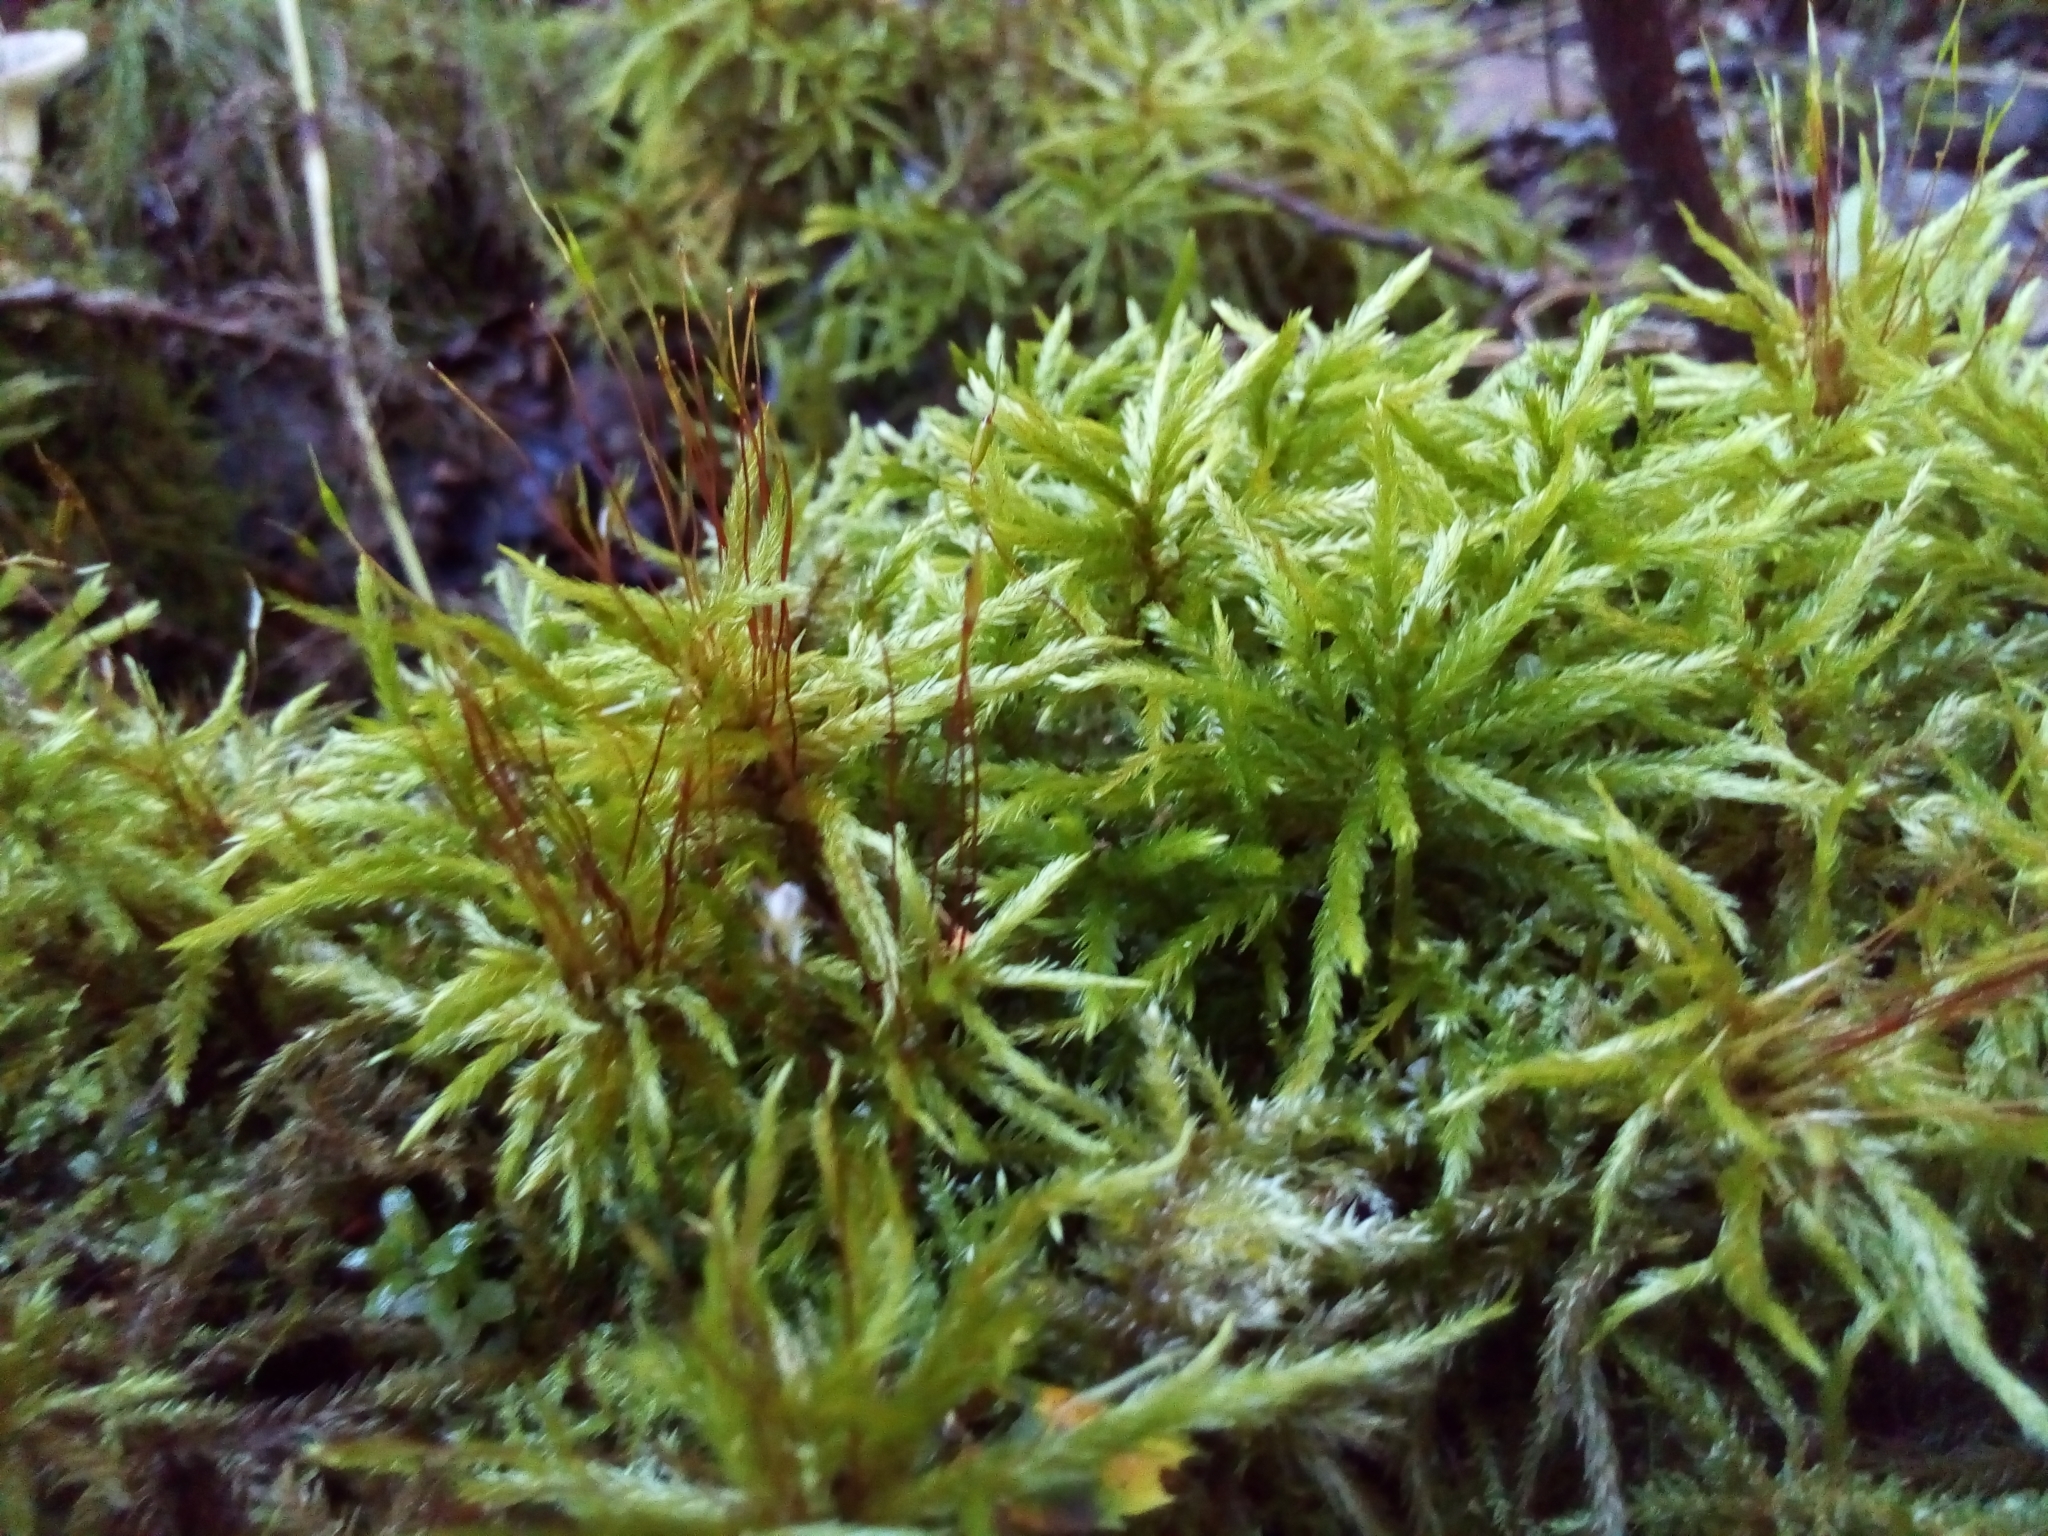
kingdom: Plantae
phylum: Bryophyta
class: Bryopsida
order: Hypnales
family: Climaciaceae
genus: Climacium
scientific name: Climacium dendroides
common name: Northern tree moss
